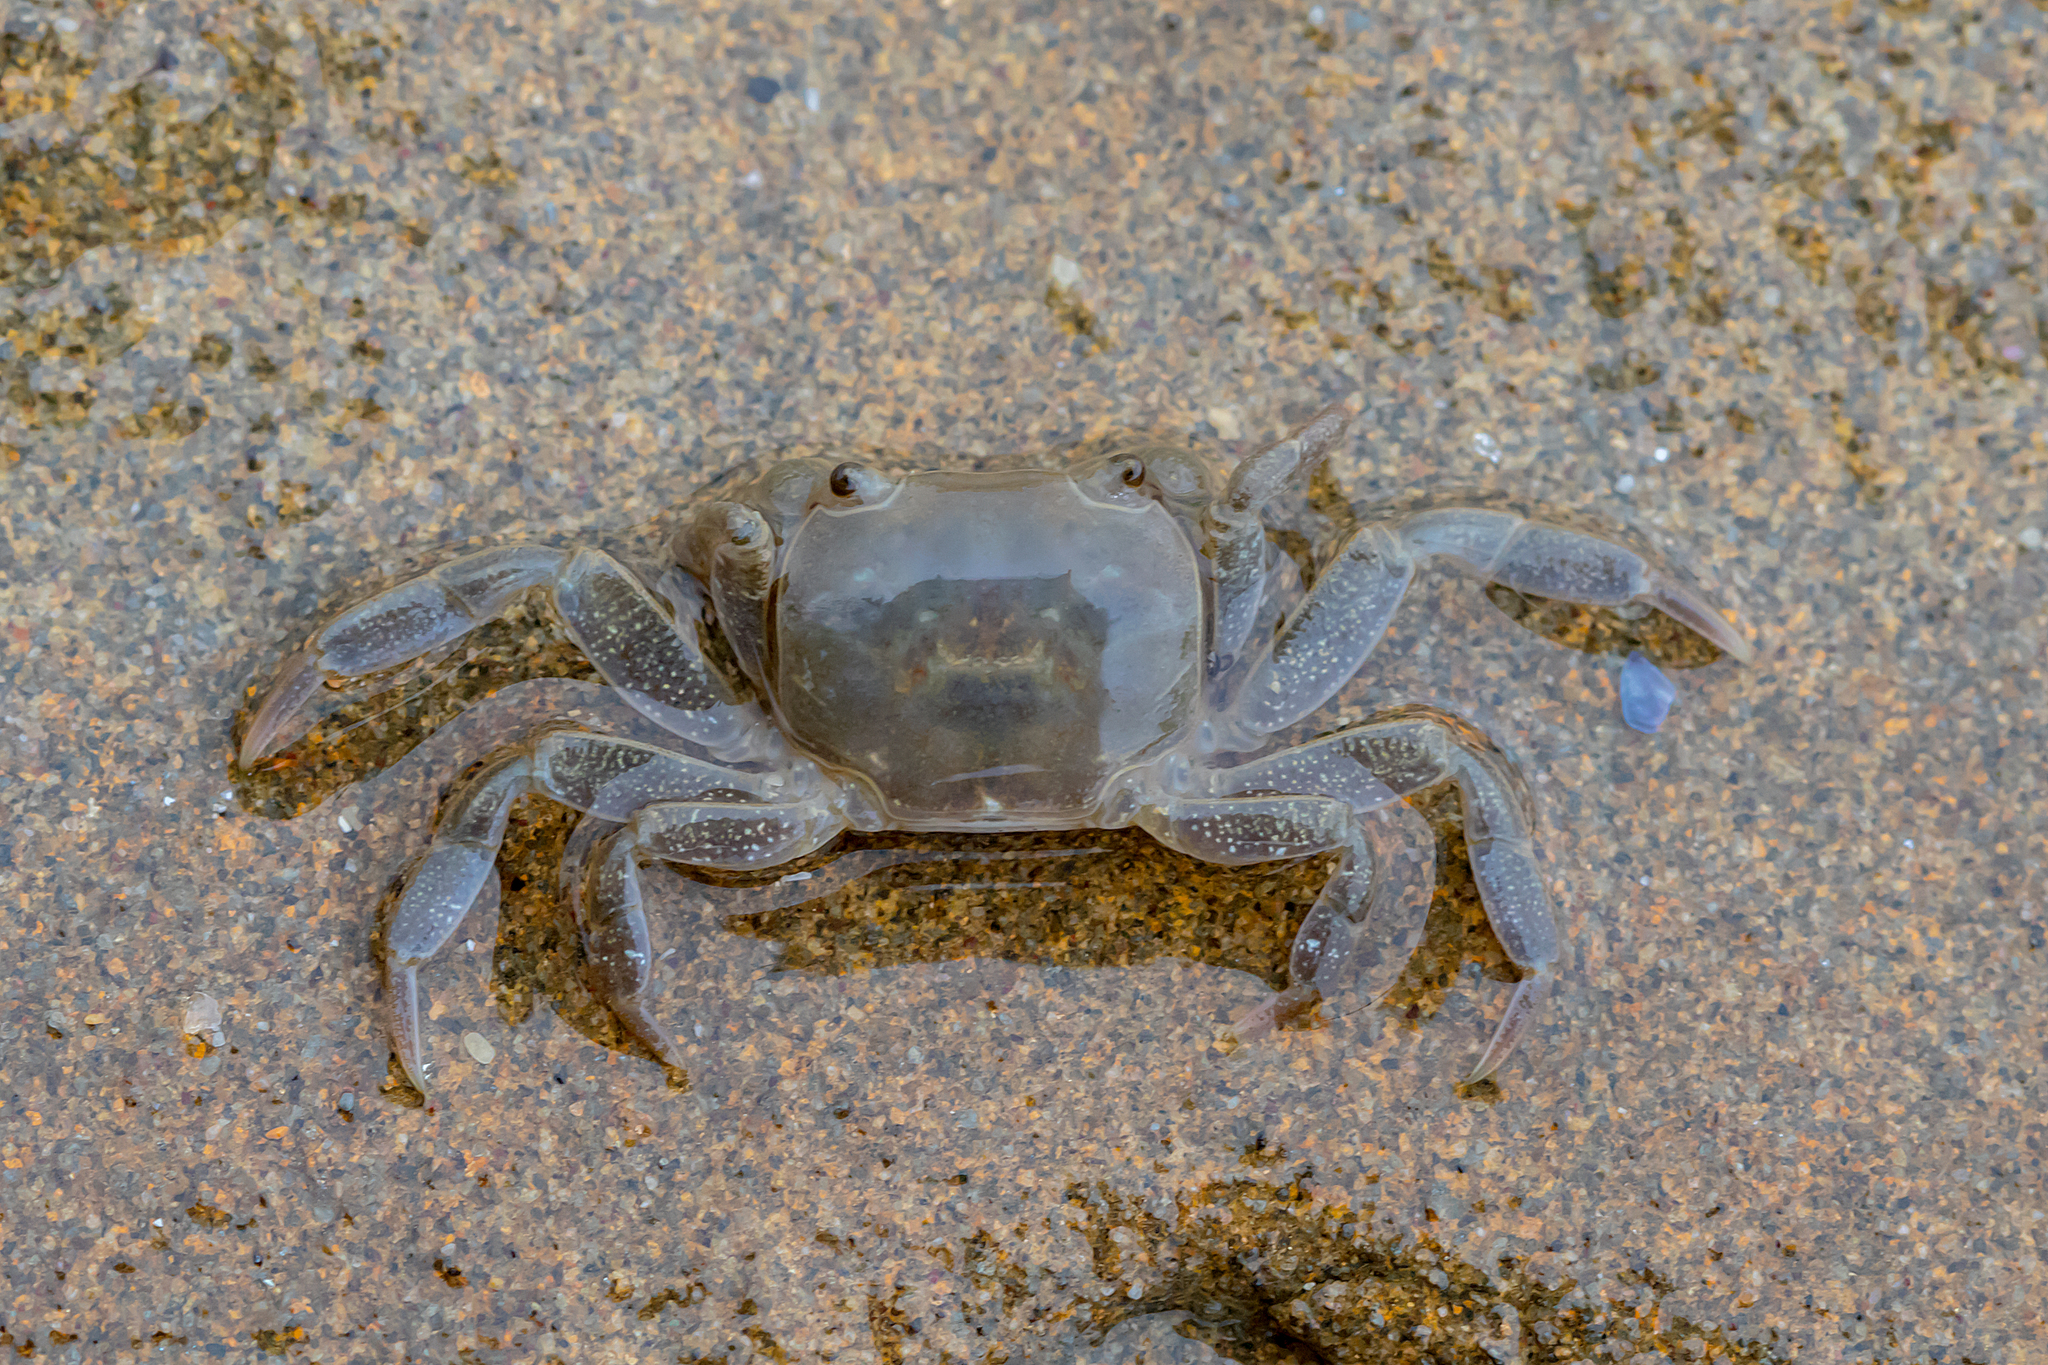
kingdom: Animalia
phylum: Arthropoda
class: Malacostraca
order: Decapoda
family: Varunidae
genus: Cyclograpsus
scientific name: Cyclograpsus granulosus
